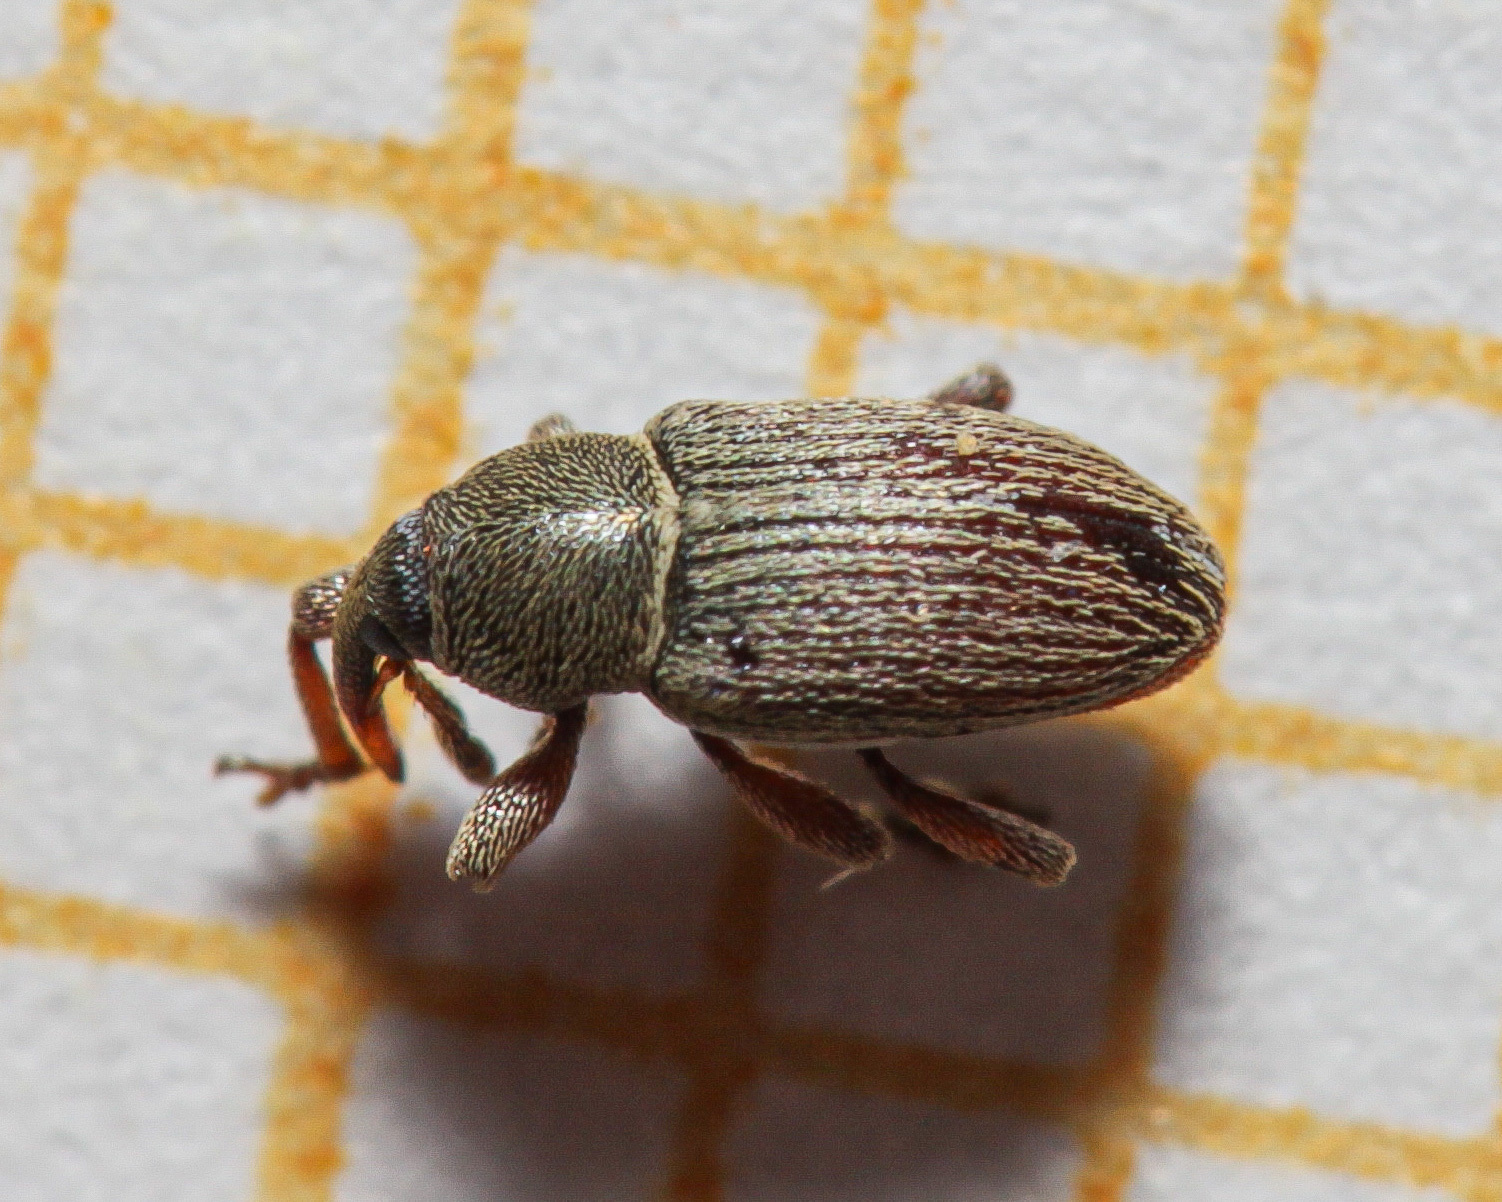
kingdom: Animalia
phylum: Arthropoda
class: Insecta
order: Coleoptera
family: Curculionidae
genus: Tychius
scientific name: Tychius picirostris
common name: Clover seed weevil
